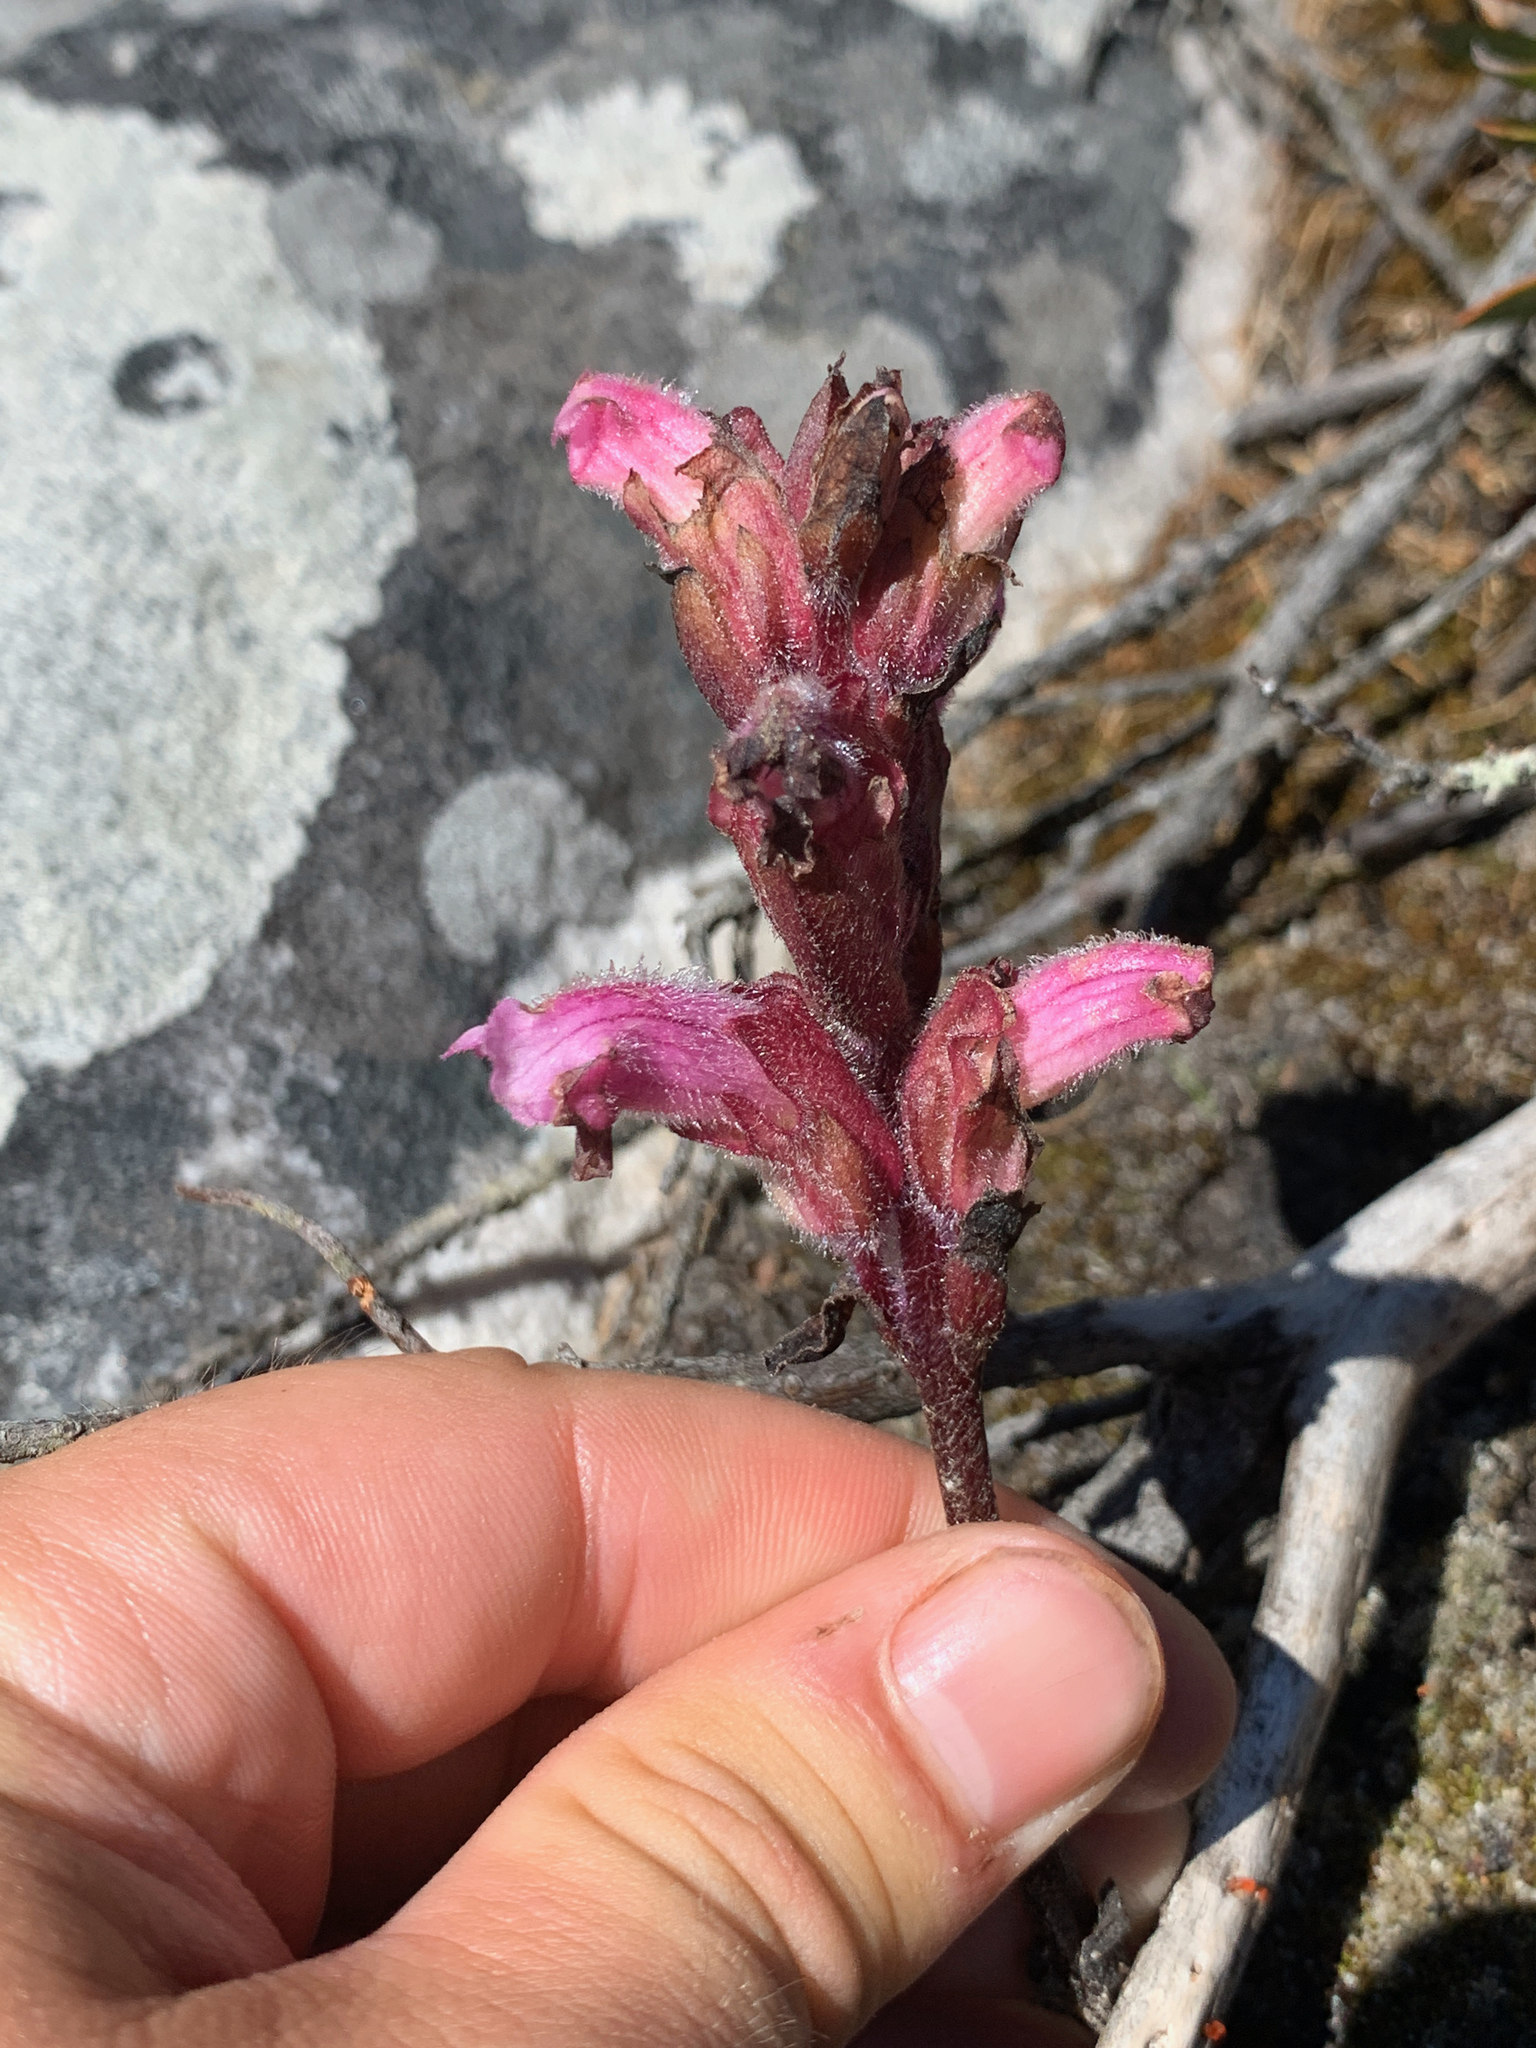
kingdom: Plantae
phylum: Tracheophyta
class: Magnoliopsida
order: Lamiales
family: Orobanchaceae
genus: Harveya
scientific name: Harveya pauciflora
